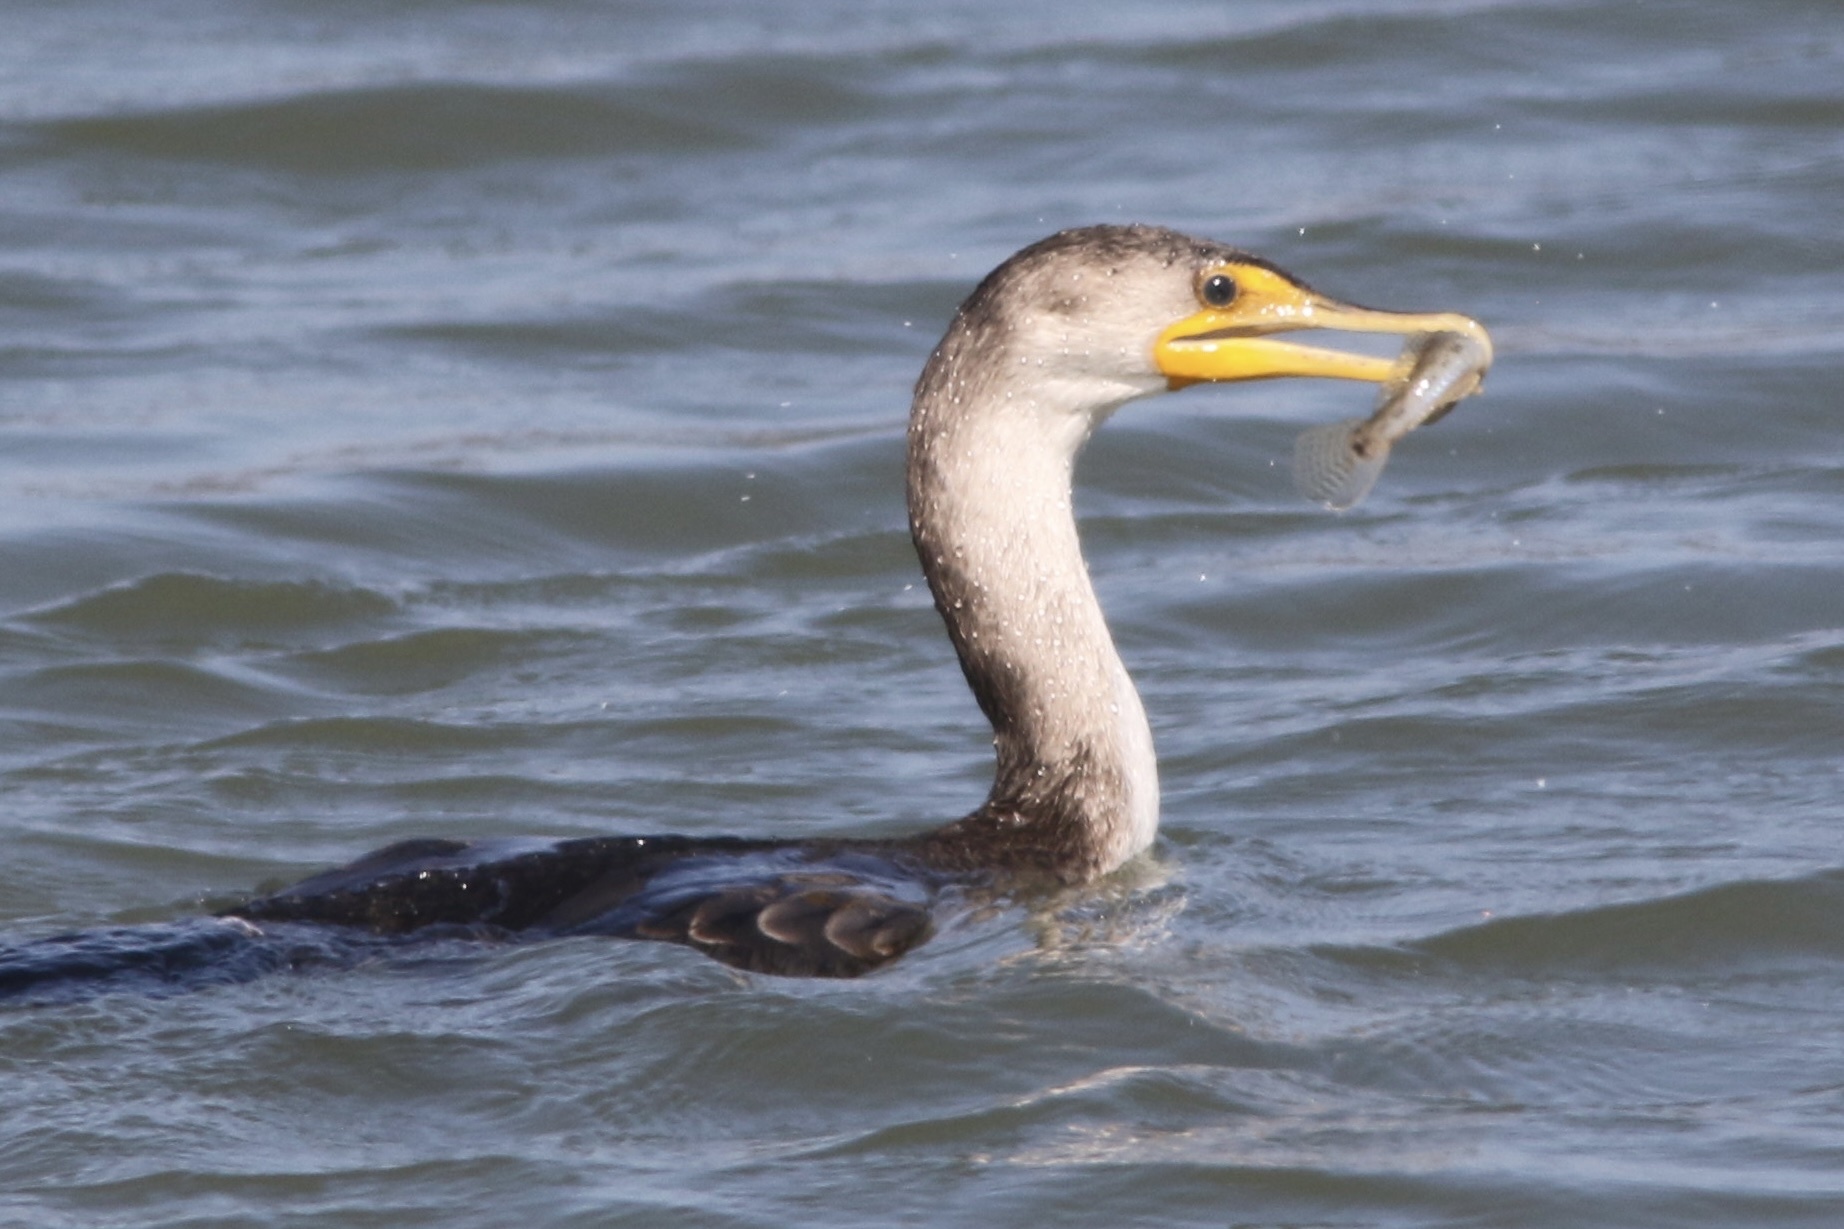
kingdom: Animalia
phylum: Chordata
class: Aves
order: Suliformes
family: Phalacrocoracidae
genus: Phalacrocorax
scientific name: Phalacrocorax auritus
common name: Double-crested cormorant
